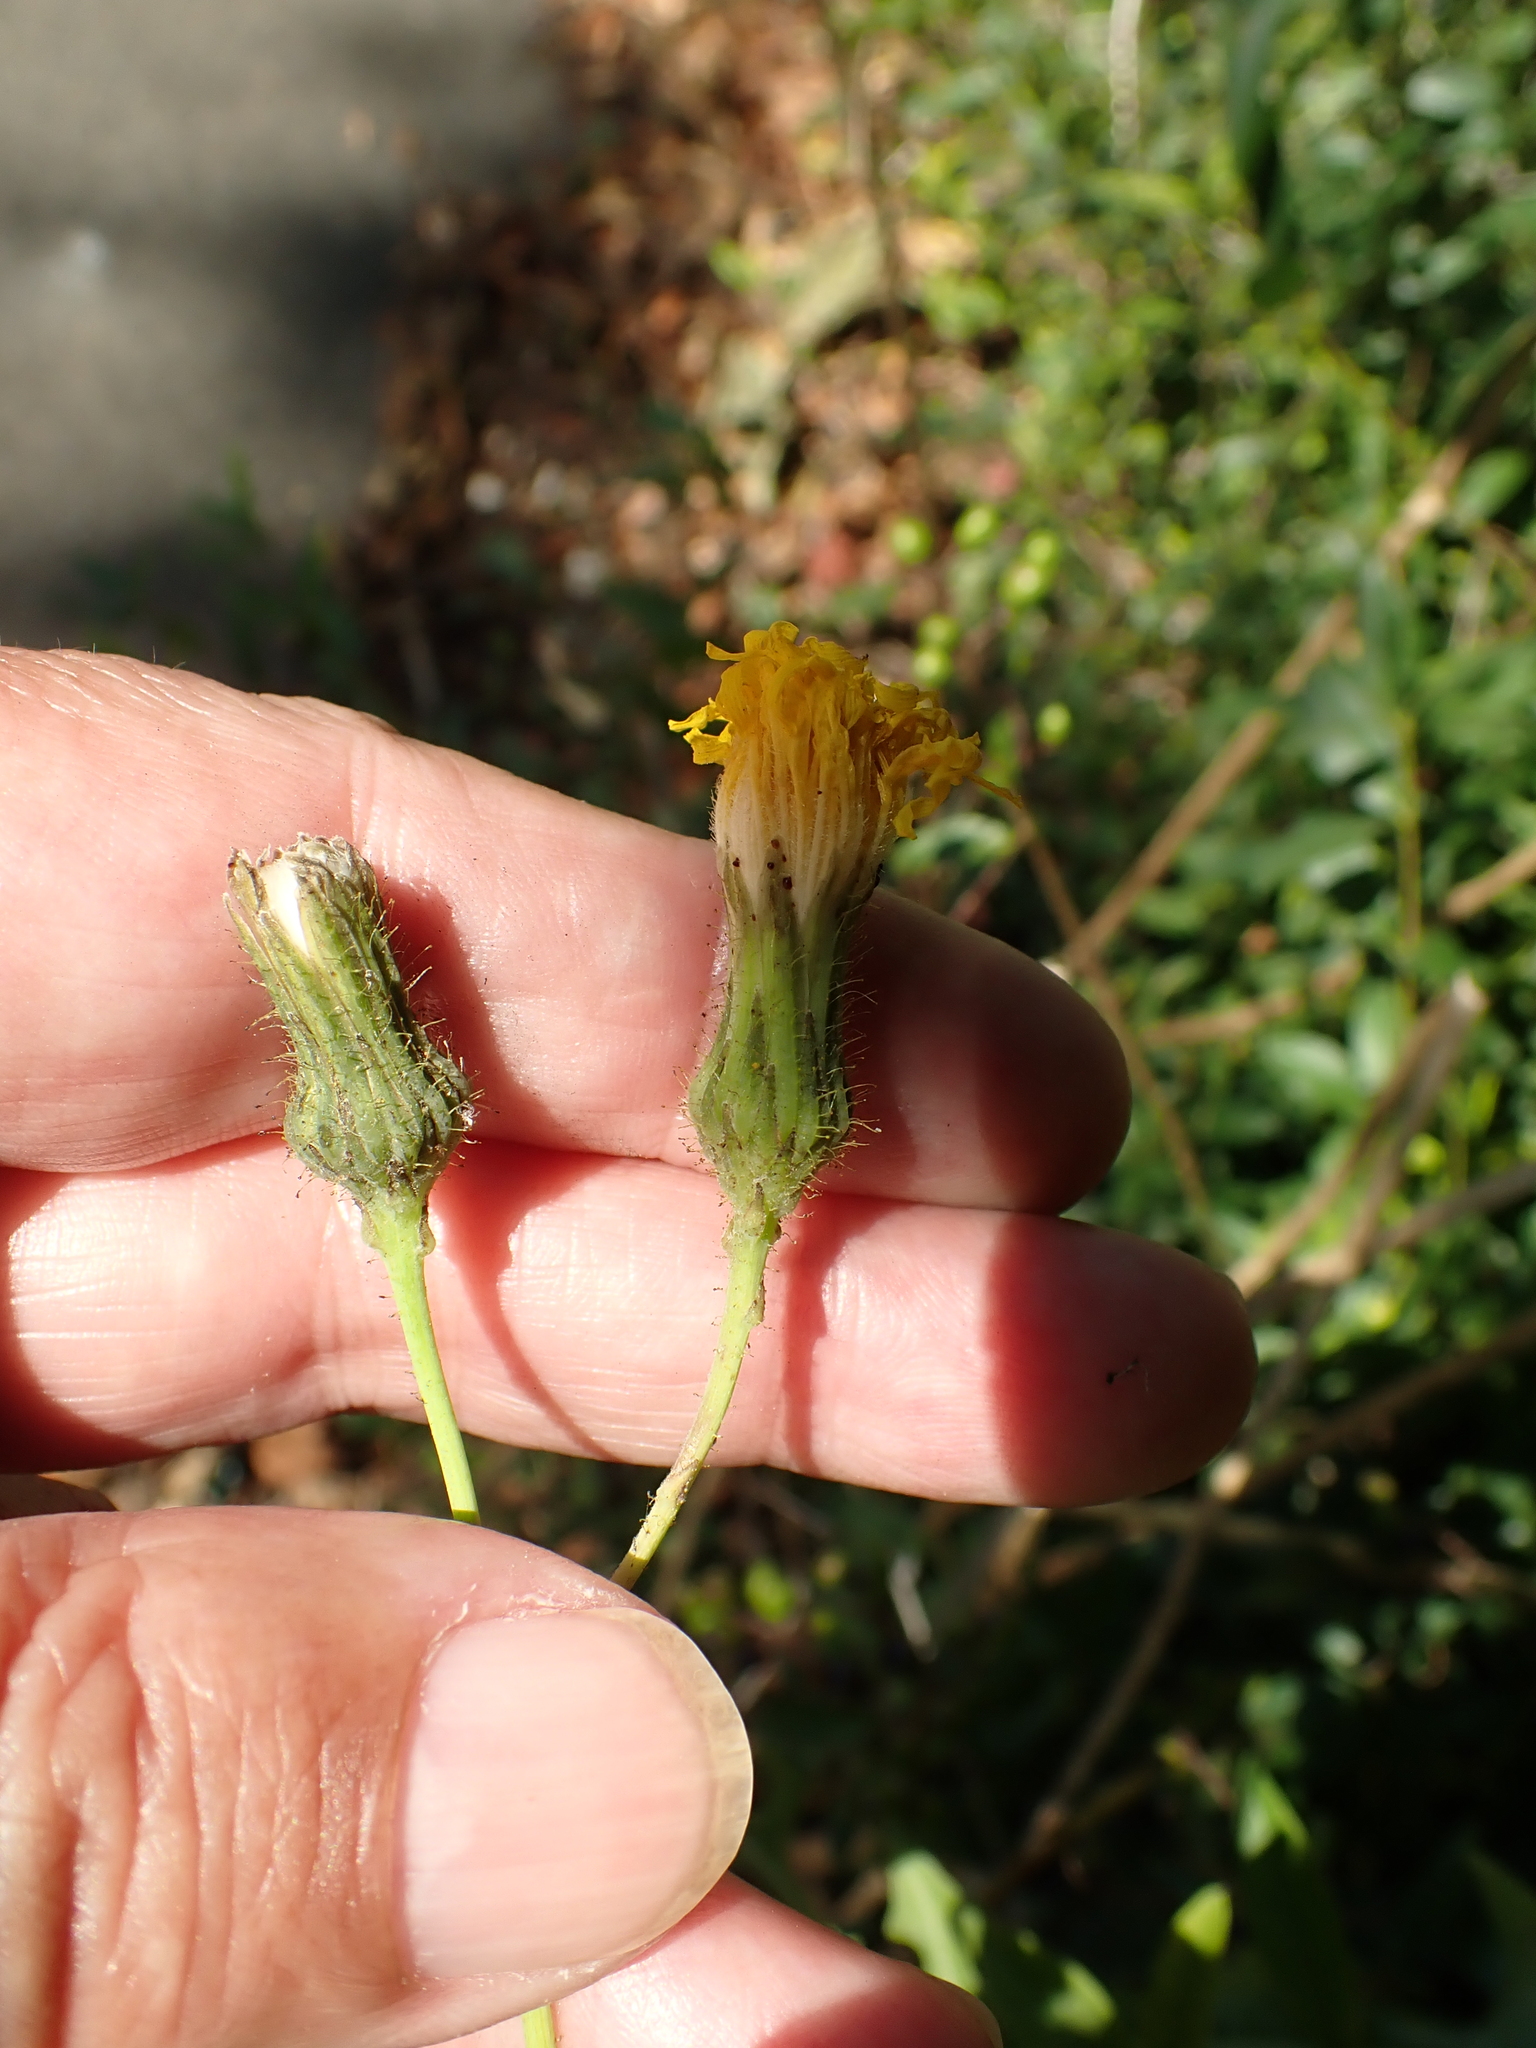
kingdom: Plantae
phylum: Tracheophyta
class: Magnoliopsida
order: Asterales
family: Asteraceae
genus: Sonchus
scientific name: Sonchus arvensis
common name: Perennial sow-thistle
